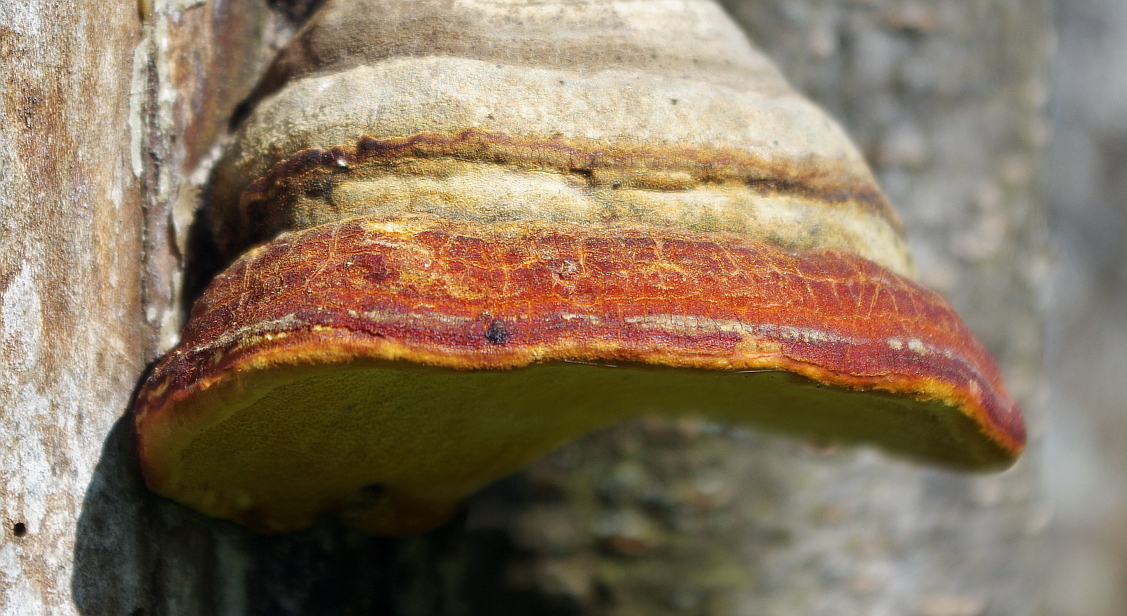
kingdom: Fungi
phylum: Basidiomycota
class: Agaricomycetes
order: Polyporales
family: Fomitopsidaceae
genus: Fomitopsis
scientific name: Fomitopsis pinicola
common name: Red-belted bracket
